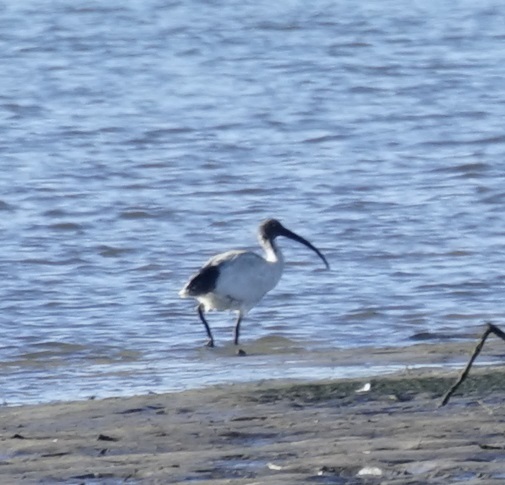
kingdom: Animalia
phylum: Chordata
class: Aves
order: Pelecaniformes
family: Threskiornithidae
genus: Threskiornis
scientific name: Threskiornis molucca
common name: Australian white ibis
